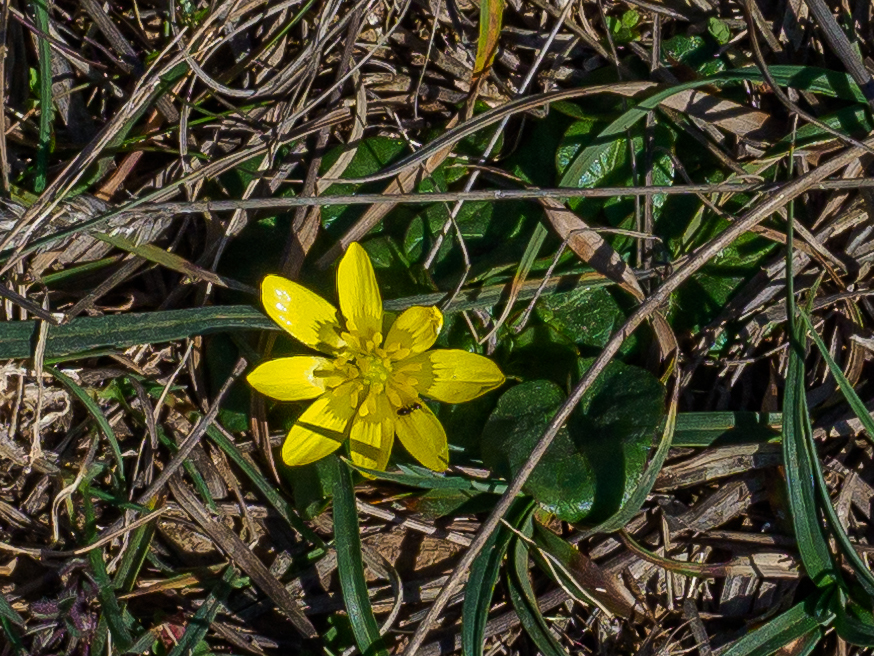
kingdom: Plantae
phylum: Tracheophyta
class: Magnoliopsida
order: Ranunculales
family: Ranunculaceae
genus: Ficaria
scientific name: Ficaria
